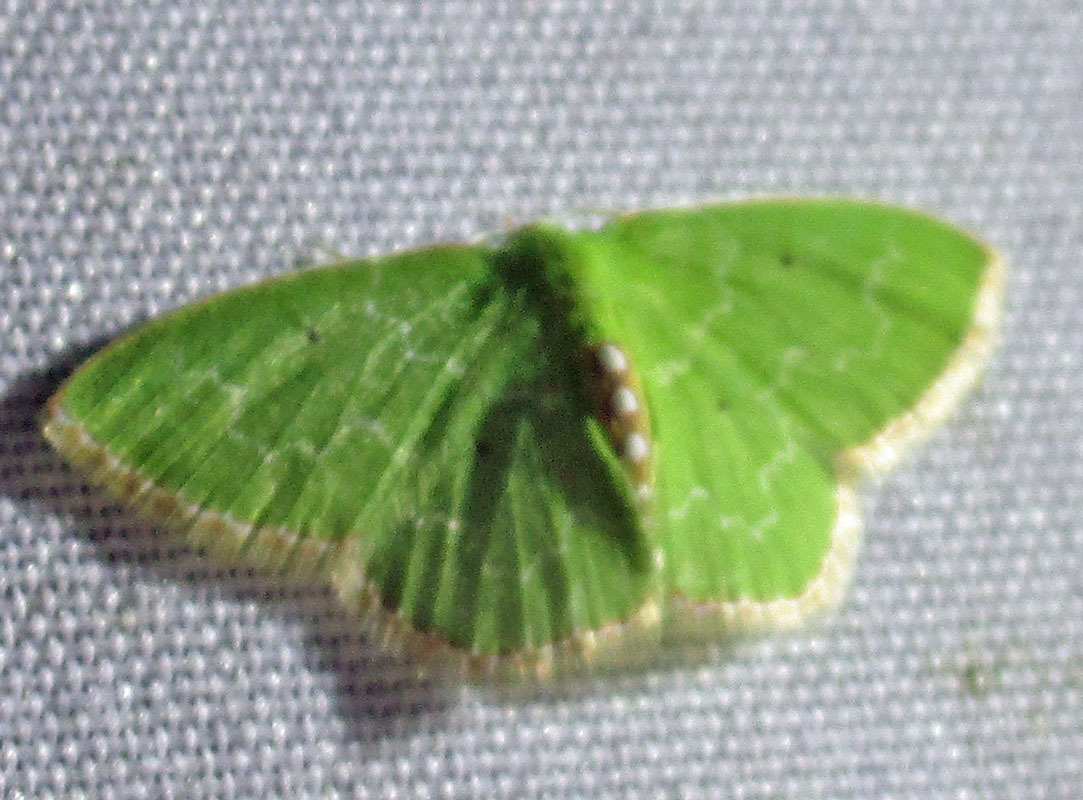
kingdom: Animalia
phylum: Arthropoda
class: Insecta
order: Lepidoptera
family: Geometridae
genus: Synchlora
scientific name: Synchlora
